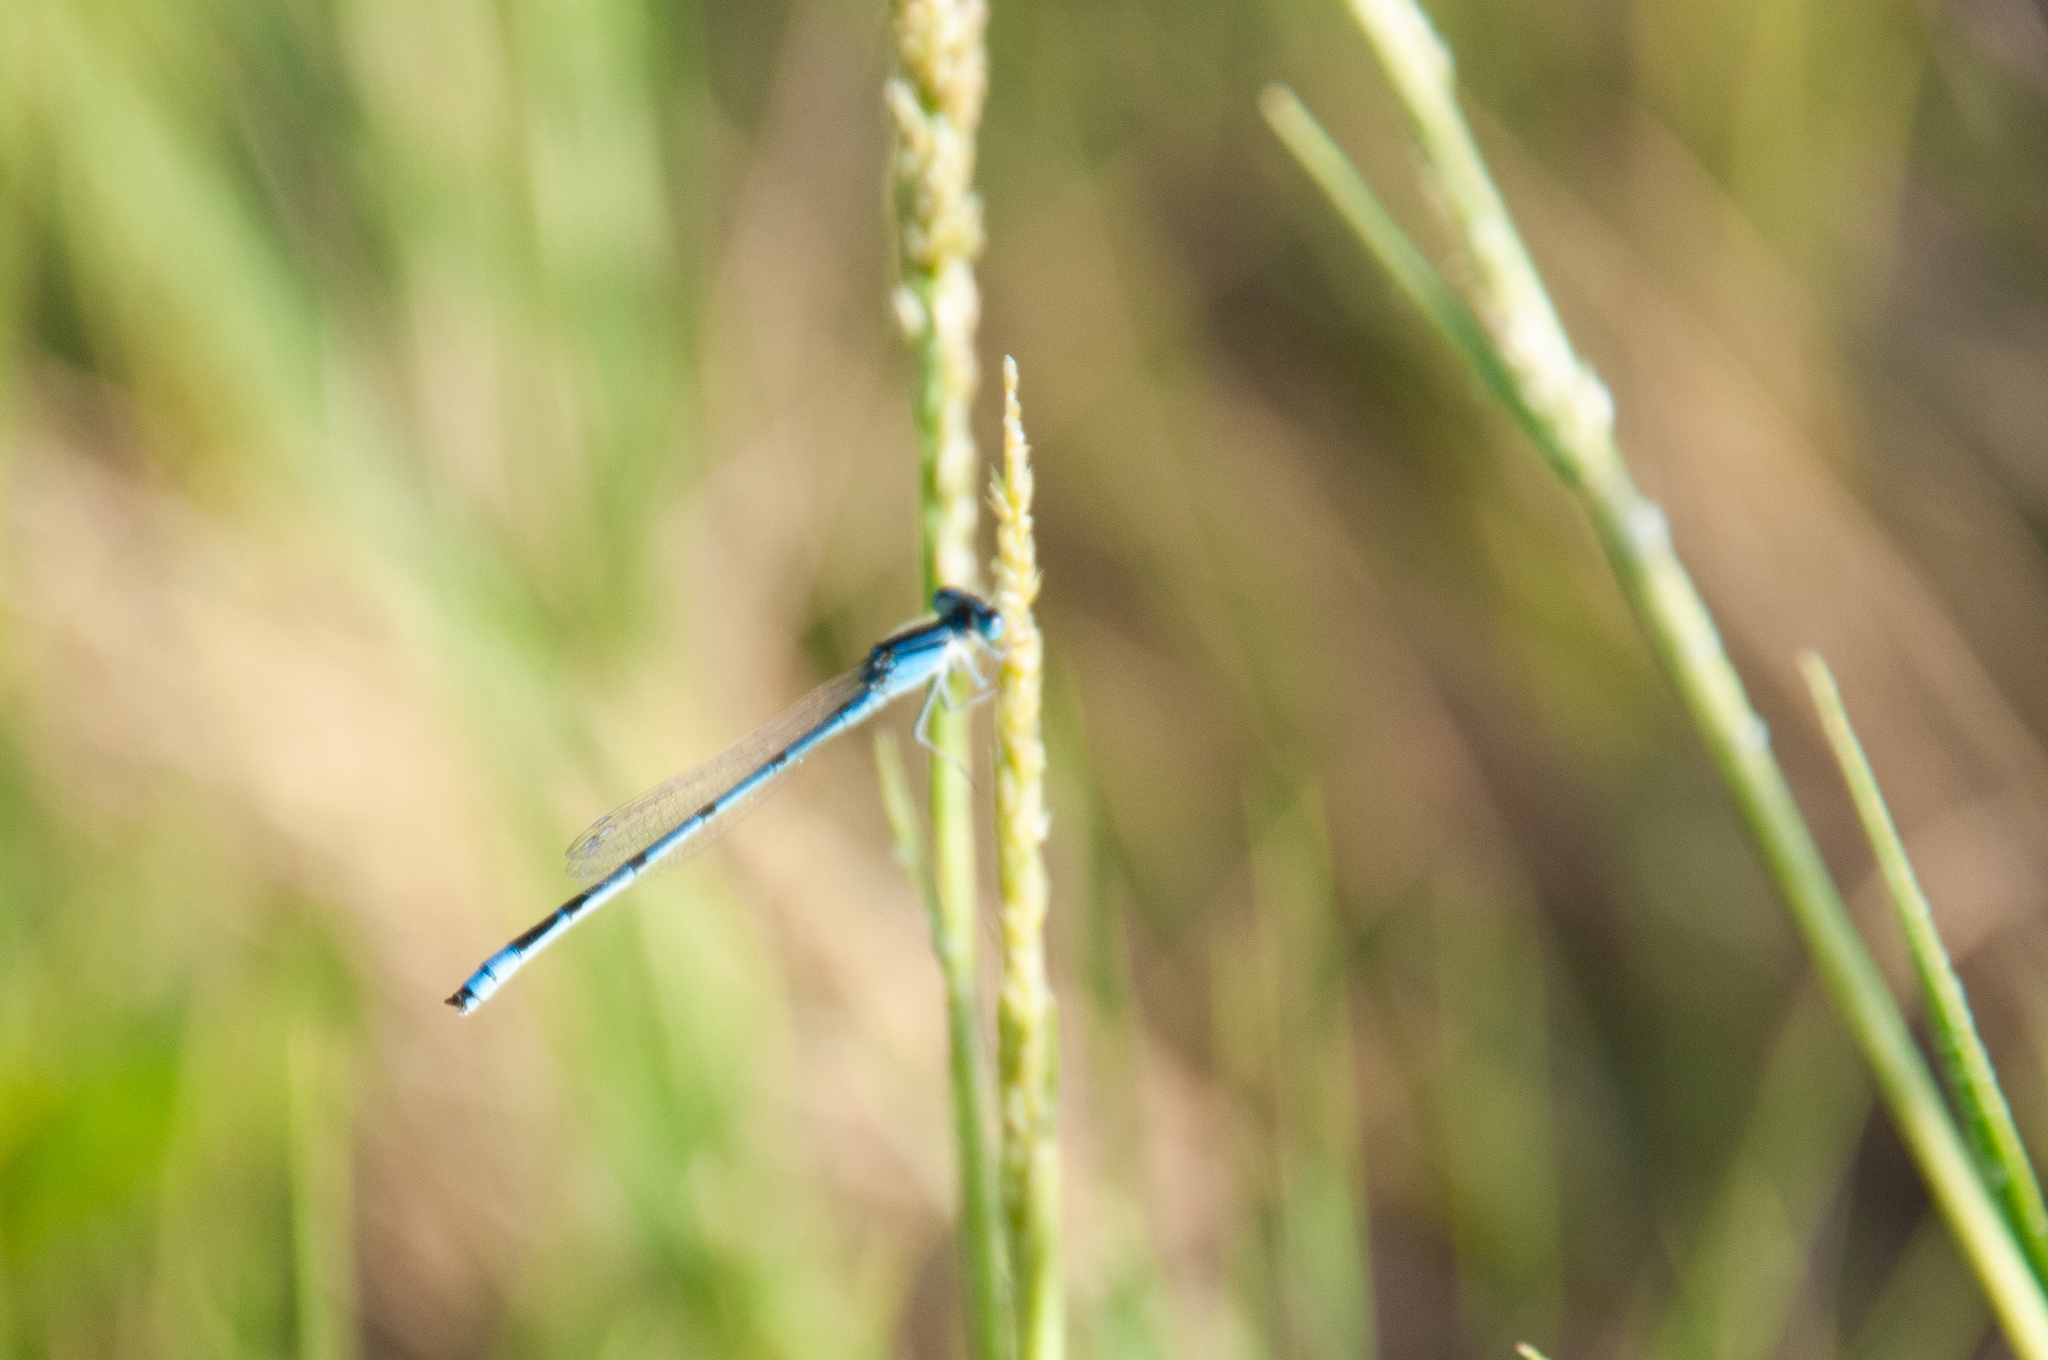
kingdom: Animalia
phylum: Arthropoda
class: Insecta
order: Odonata
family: Coenagrionidae
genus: Enallagma
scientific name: Enallagma civile
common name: Damselfly
